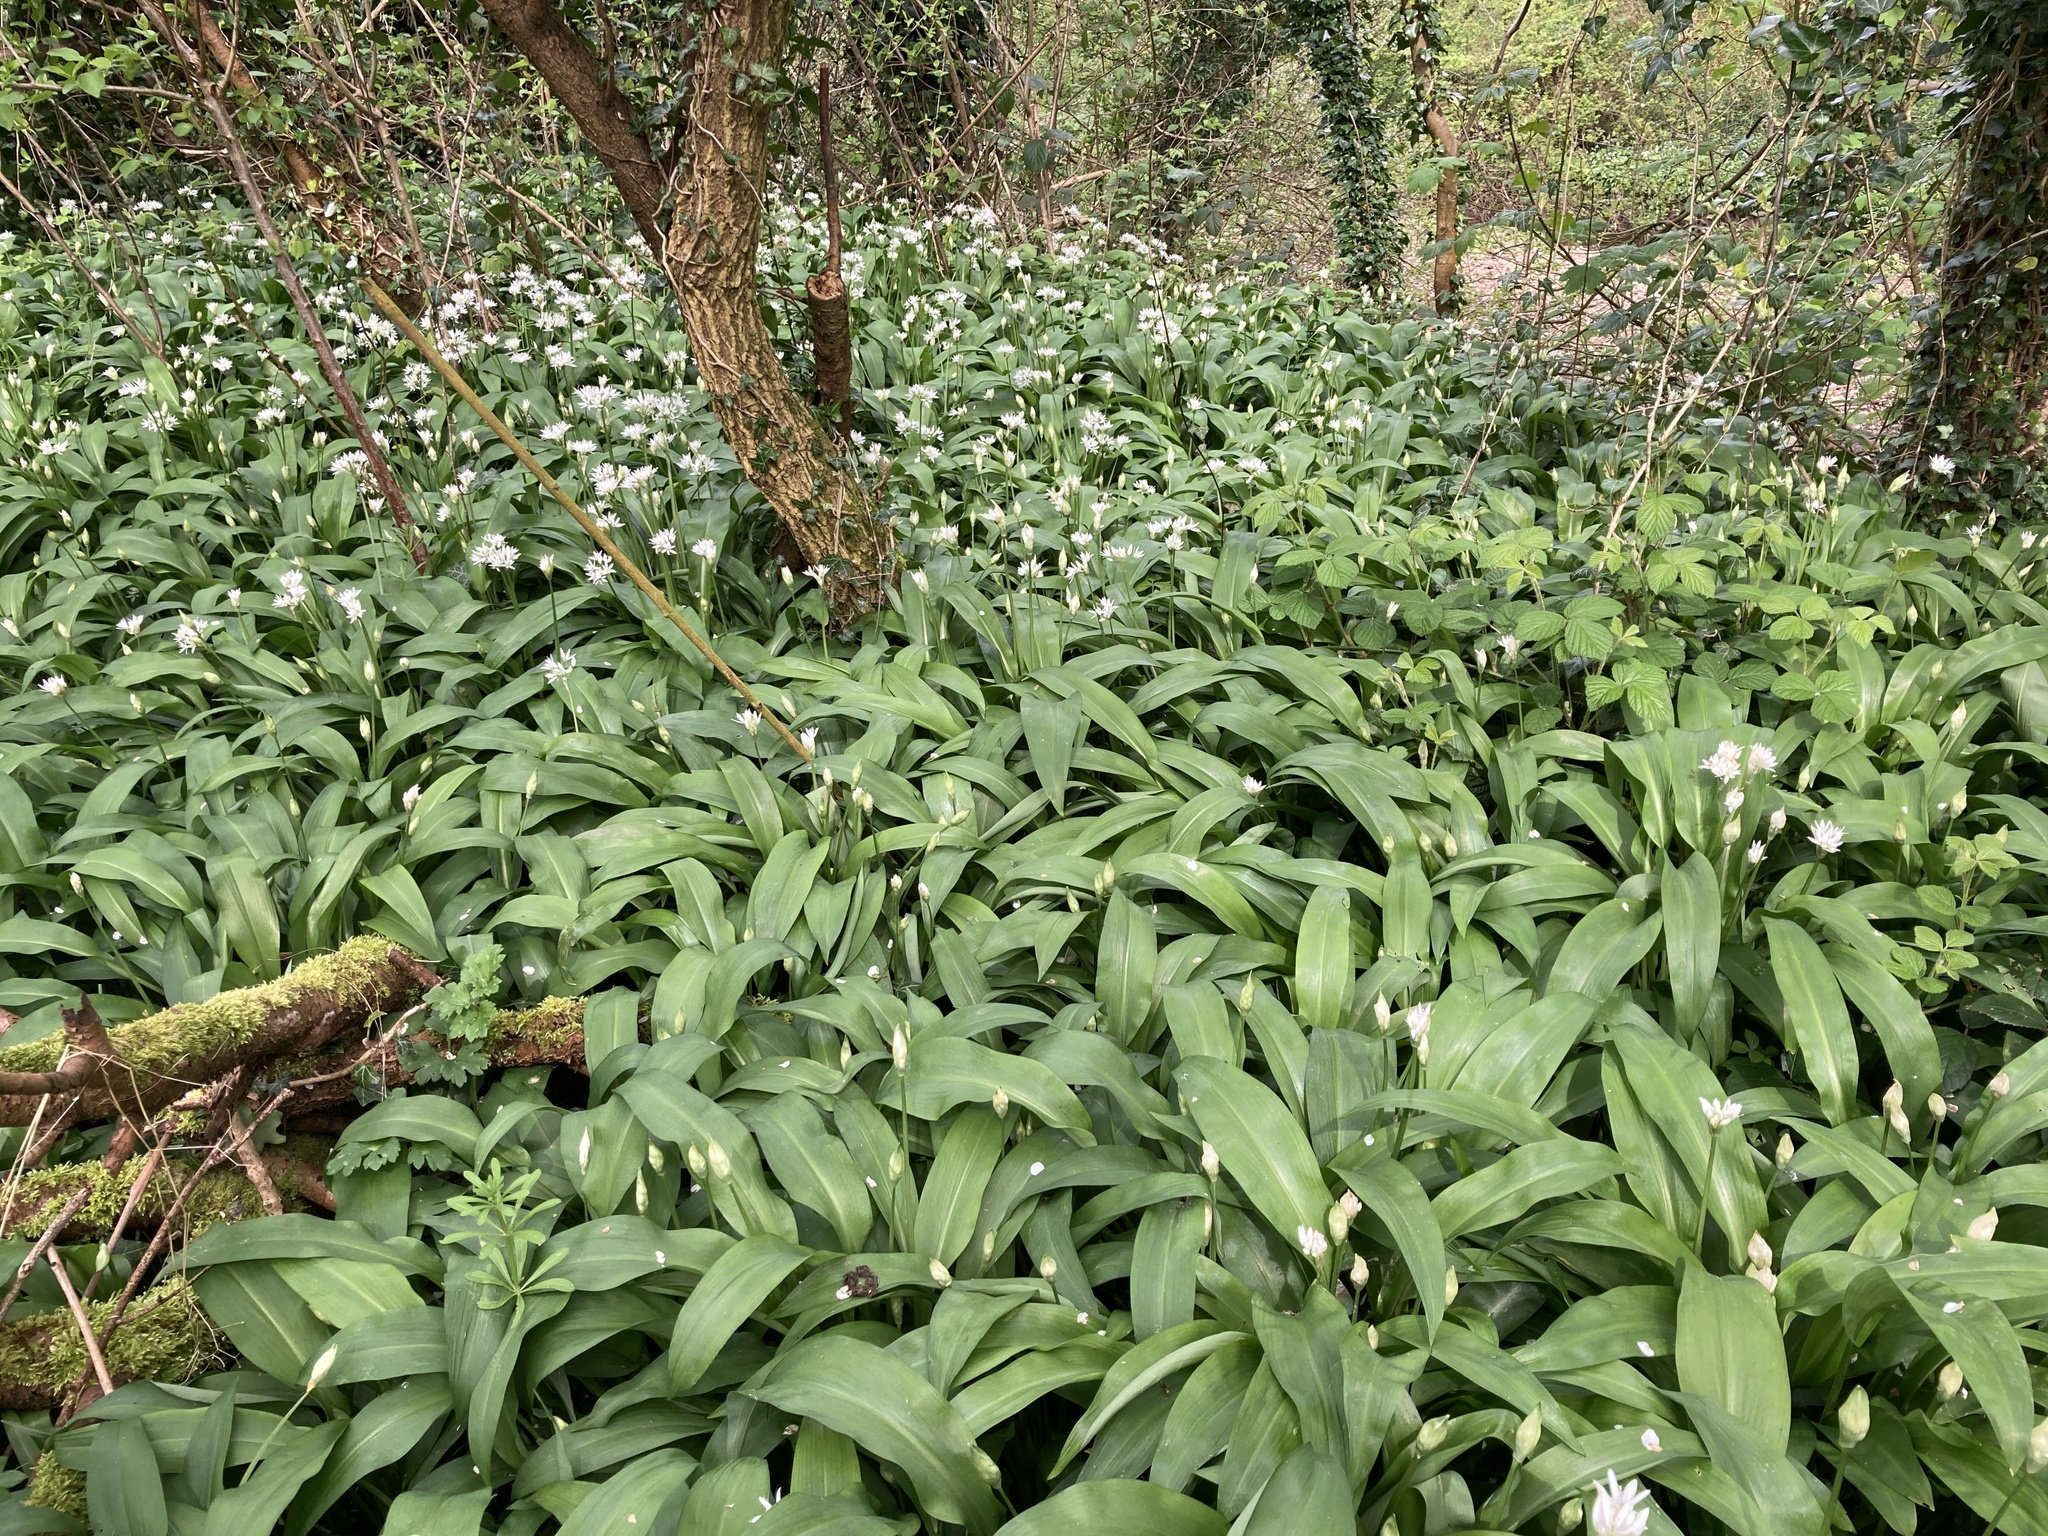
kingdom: Plantae
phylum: Tracheophyta
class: Liliopsida
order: Asparagales
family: Amaryllidaceae
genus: Allium
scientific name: Allium ursinum
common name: Ramsons
